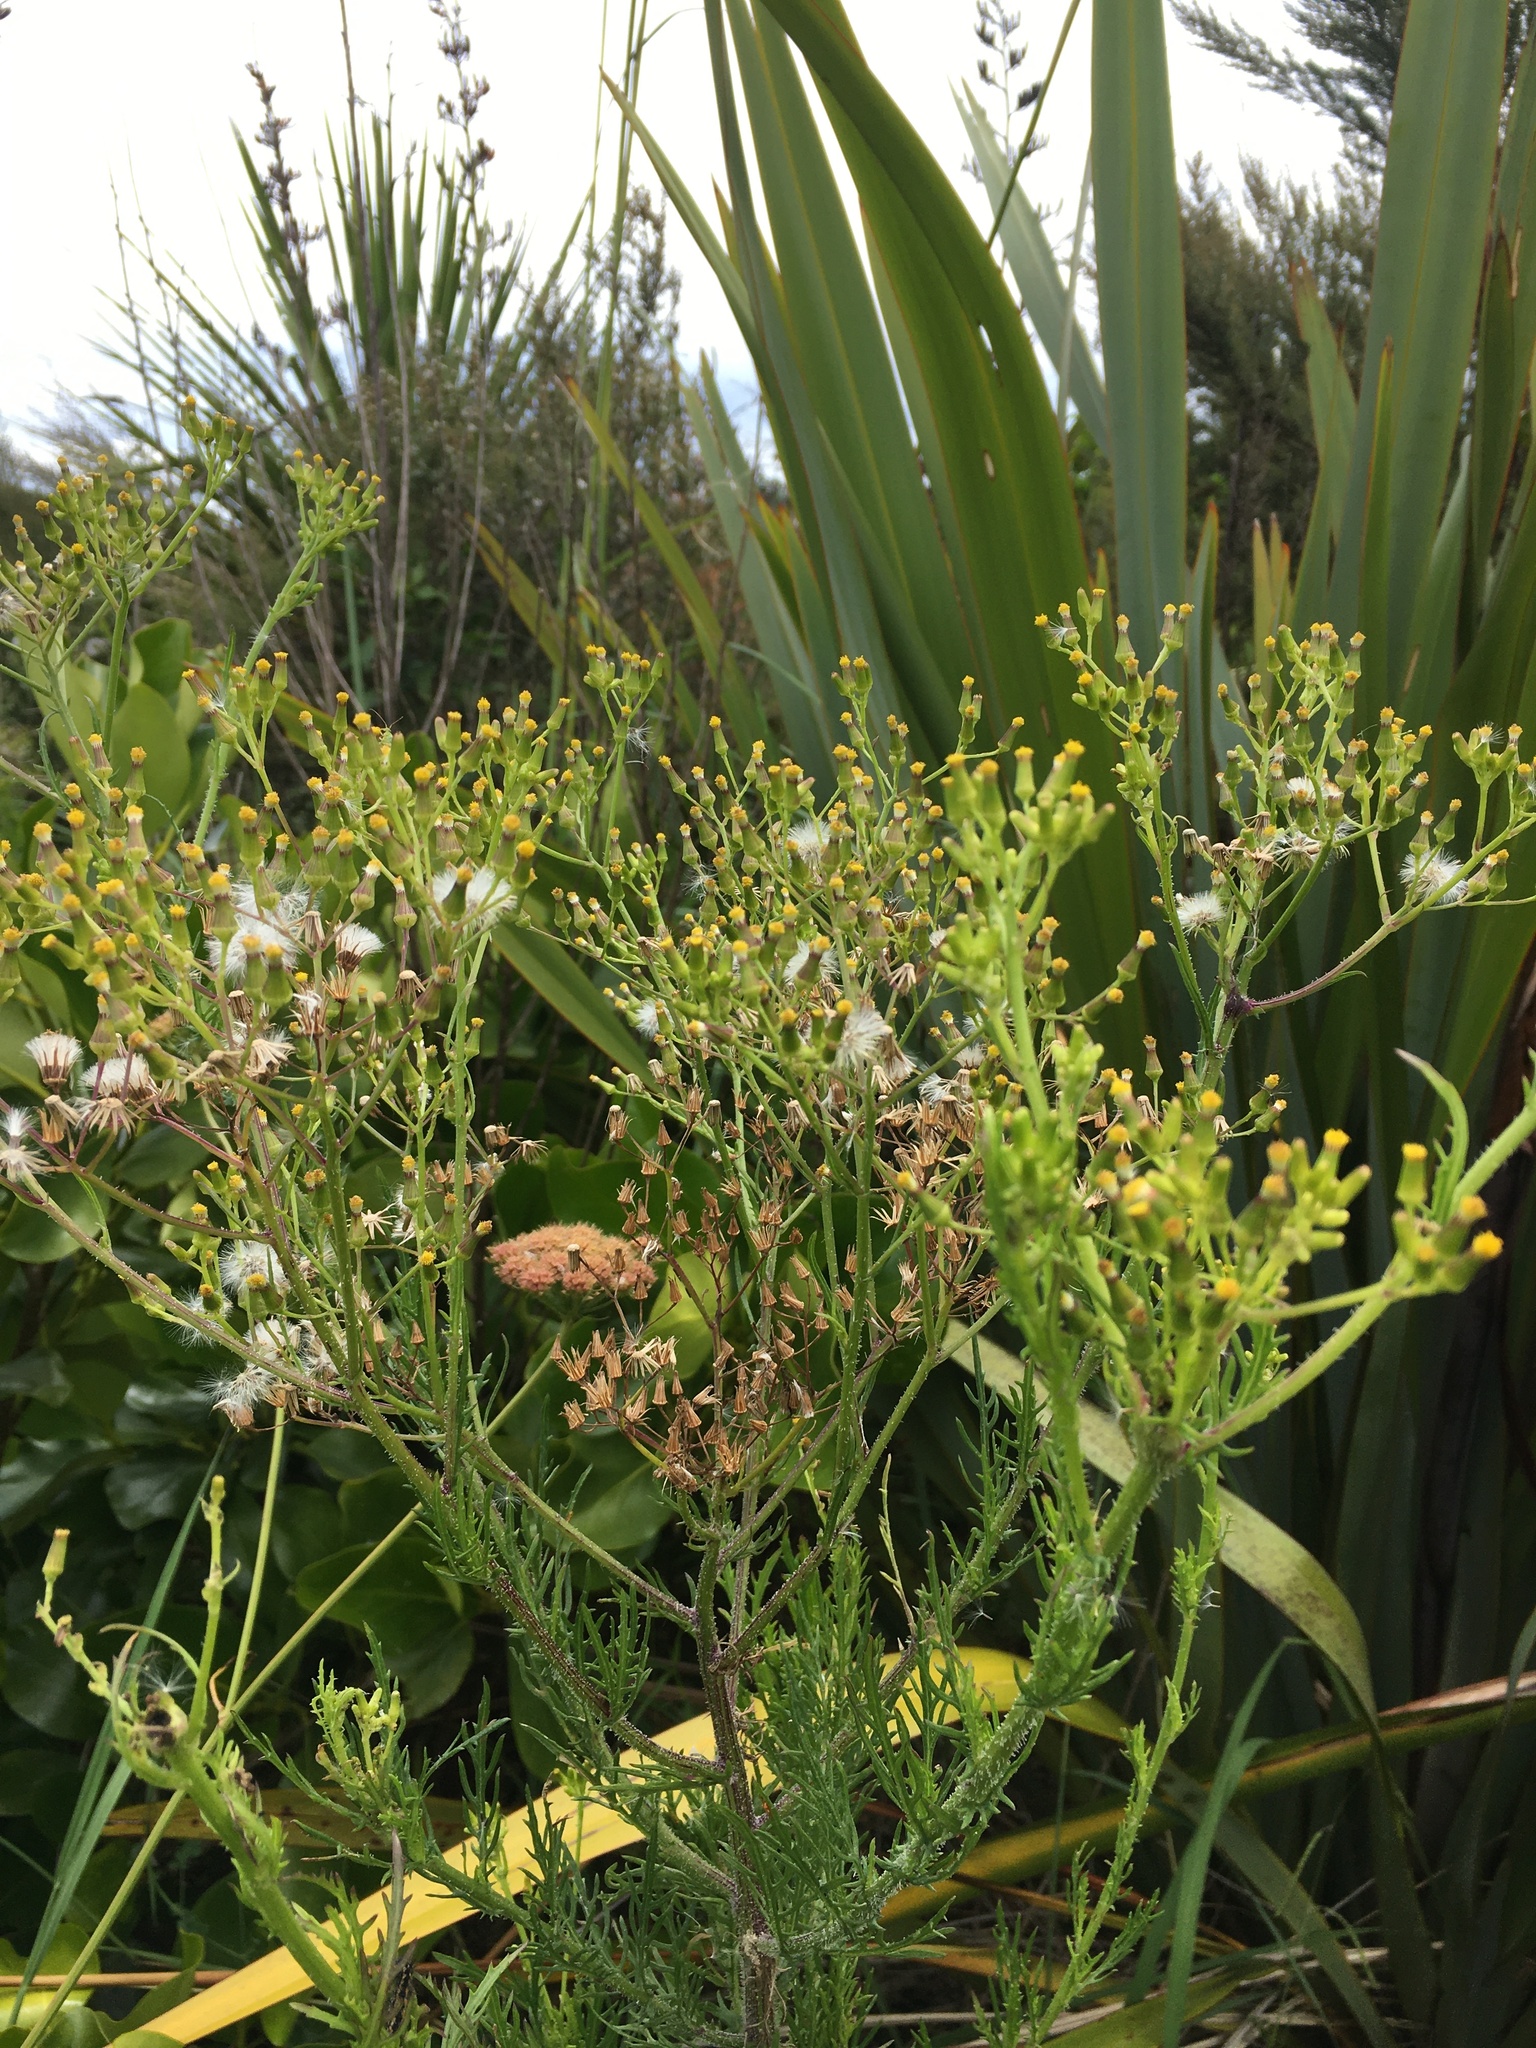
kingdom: Plantae
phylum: Tracheophyta
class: Magnoliopsida
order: Asterales
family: Asteraceae
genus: Senecio
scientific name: Senecio esleri
